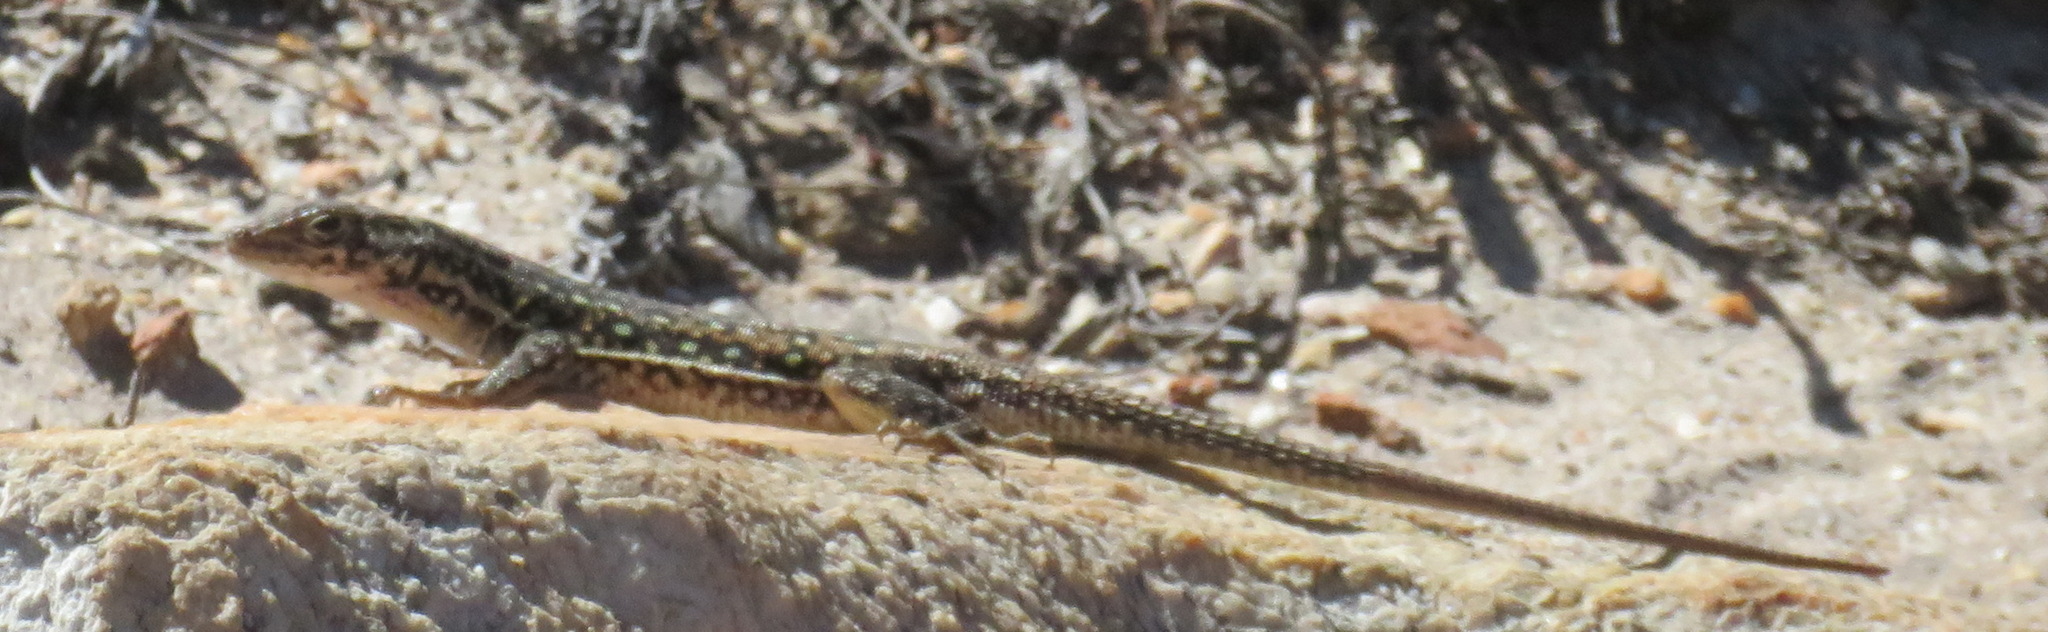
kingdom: Animalia
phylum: Chordata
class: Squamata
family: Lacertidae
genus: Pedioplanis
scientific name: Pedioplanis lineoocellata
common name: Spotted sand lizard
